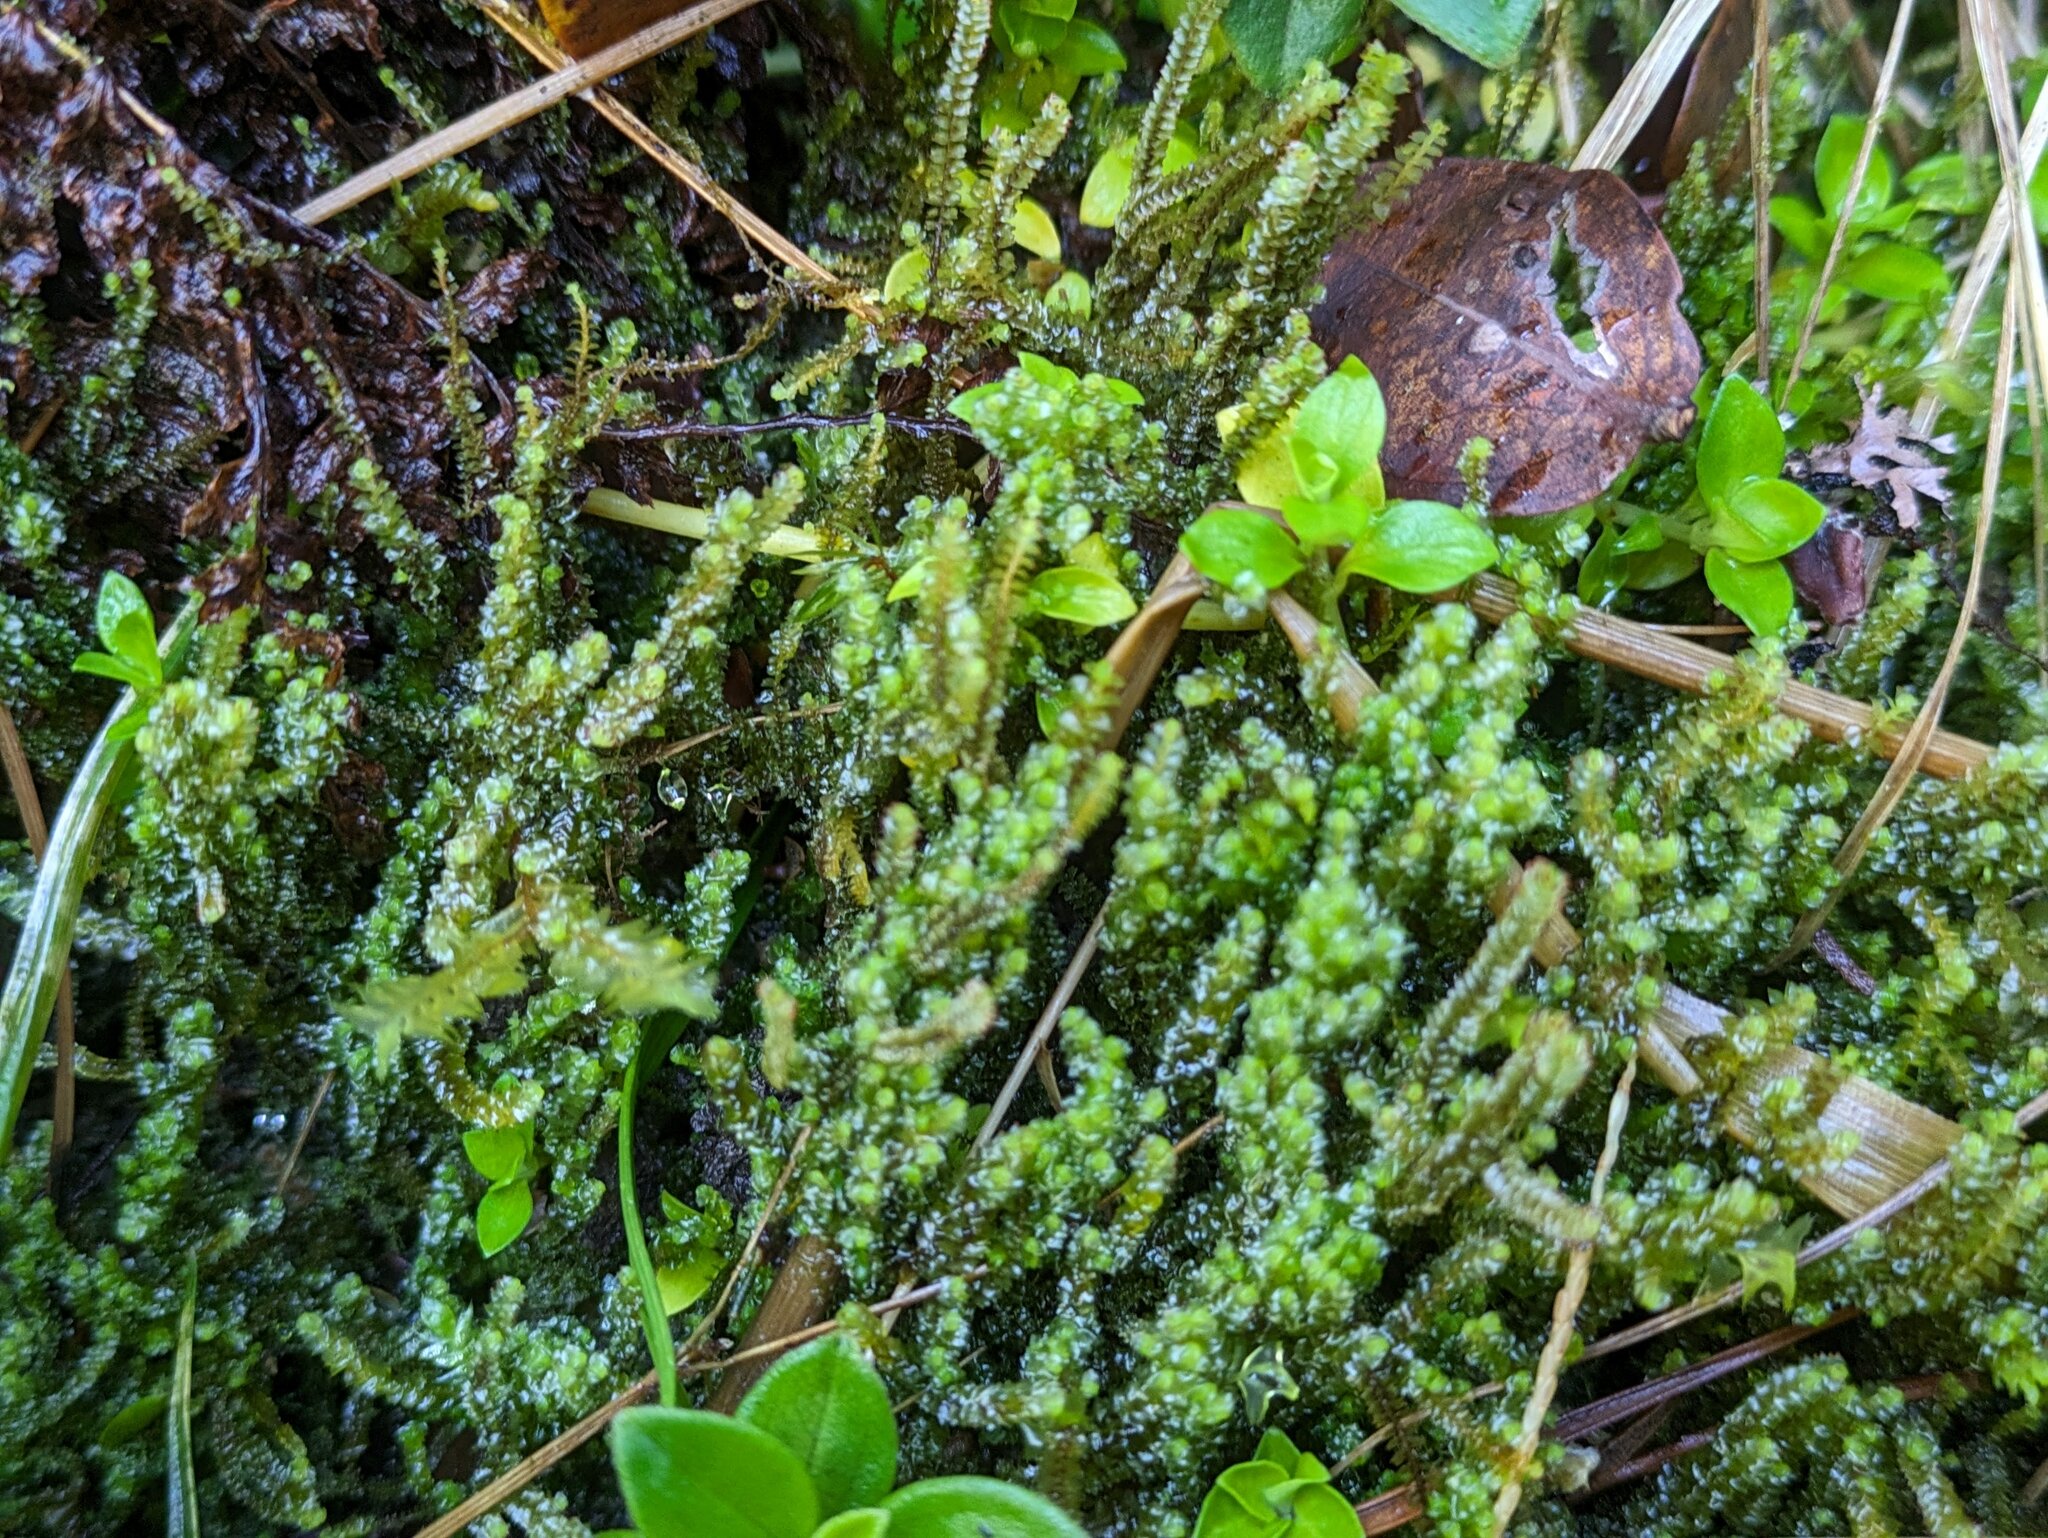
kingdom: Plantae
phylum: Marchantiophyta
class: Jungermanniopsida
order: Jungermanniales
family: Anastrophyllaceae
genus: Anastrepta
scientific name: Anastrepta orcadensis
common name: Orkney notchwort
